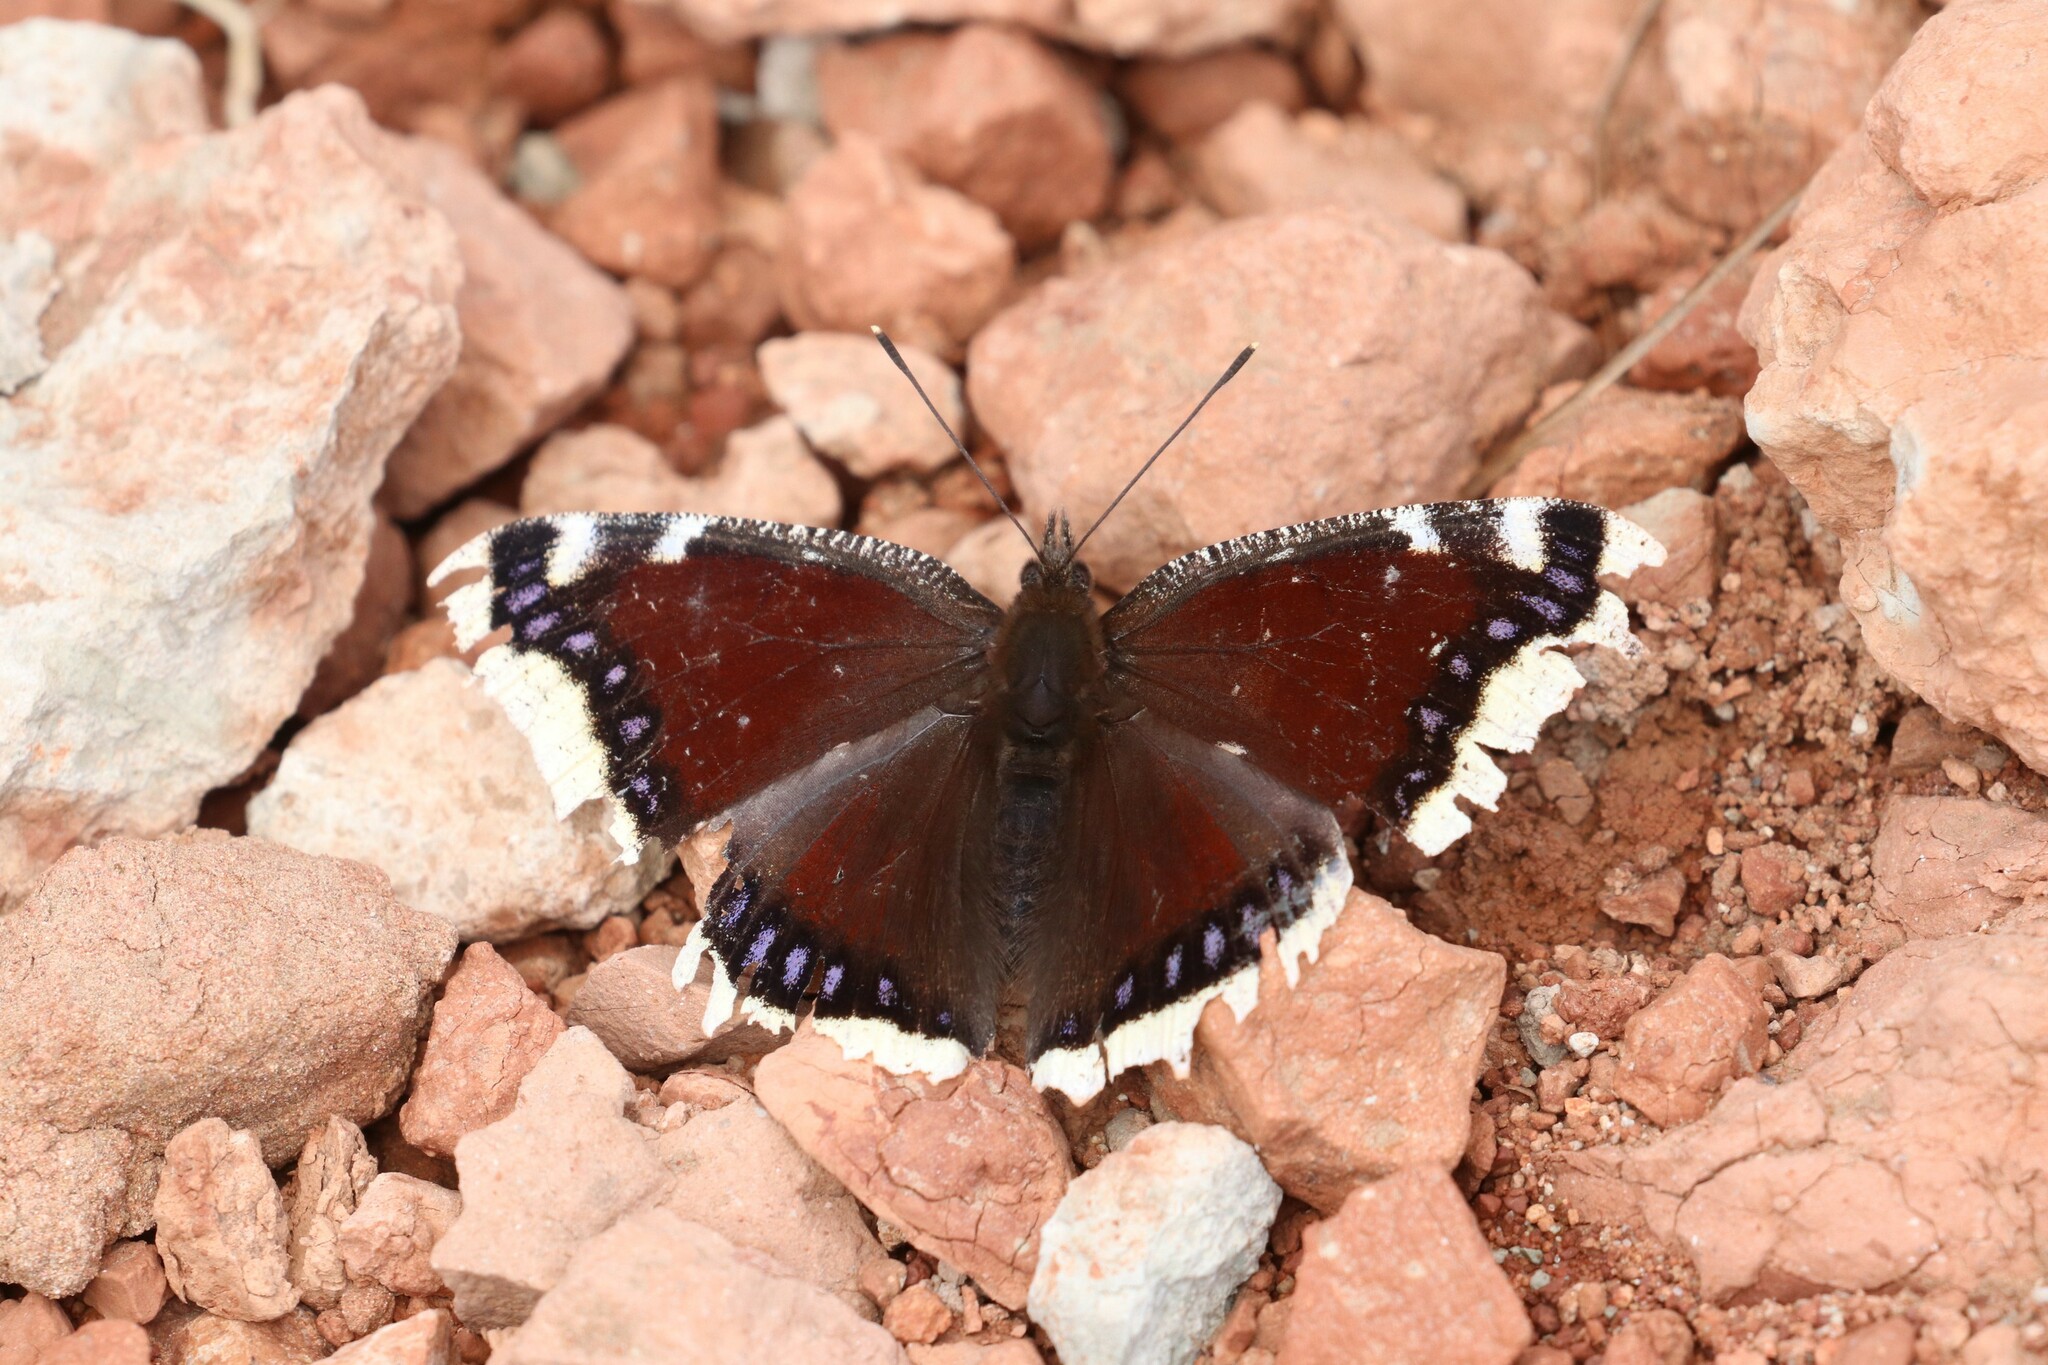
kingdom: Animalia
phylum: Arthropoda
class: Insecta
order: Lepidoptera
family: Nymphalidae
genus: Nymphalis
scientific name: Nymphalis antiopa
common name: Camberwell beauty
